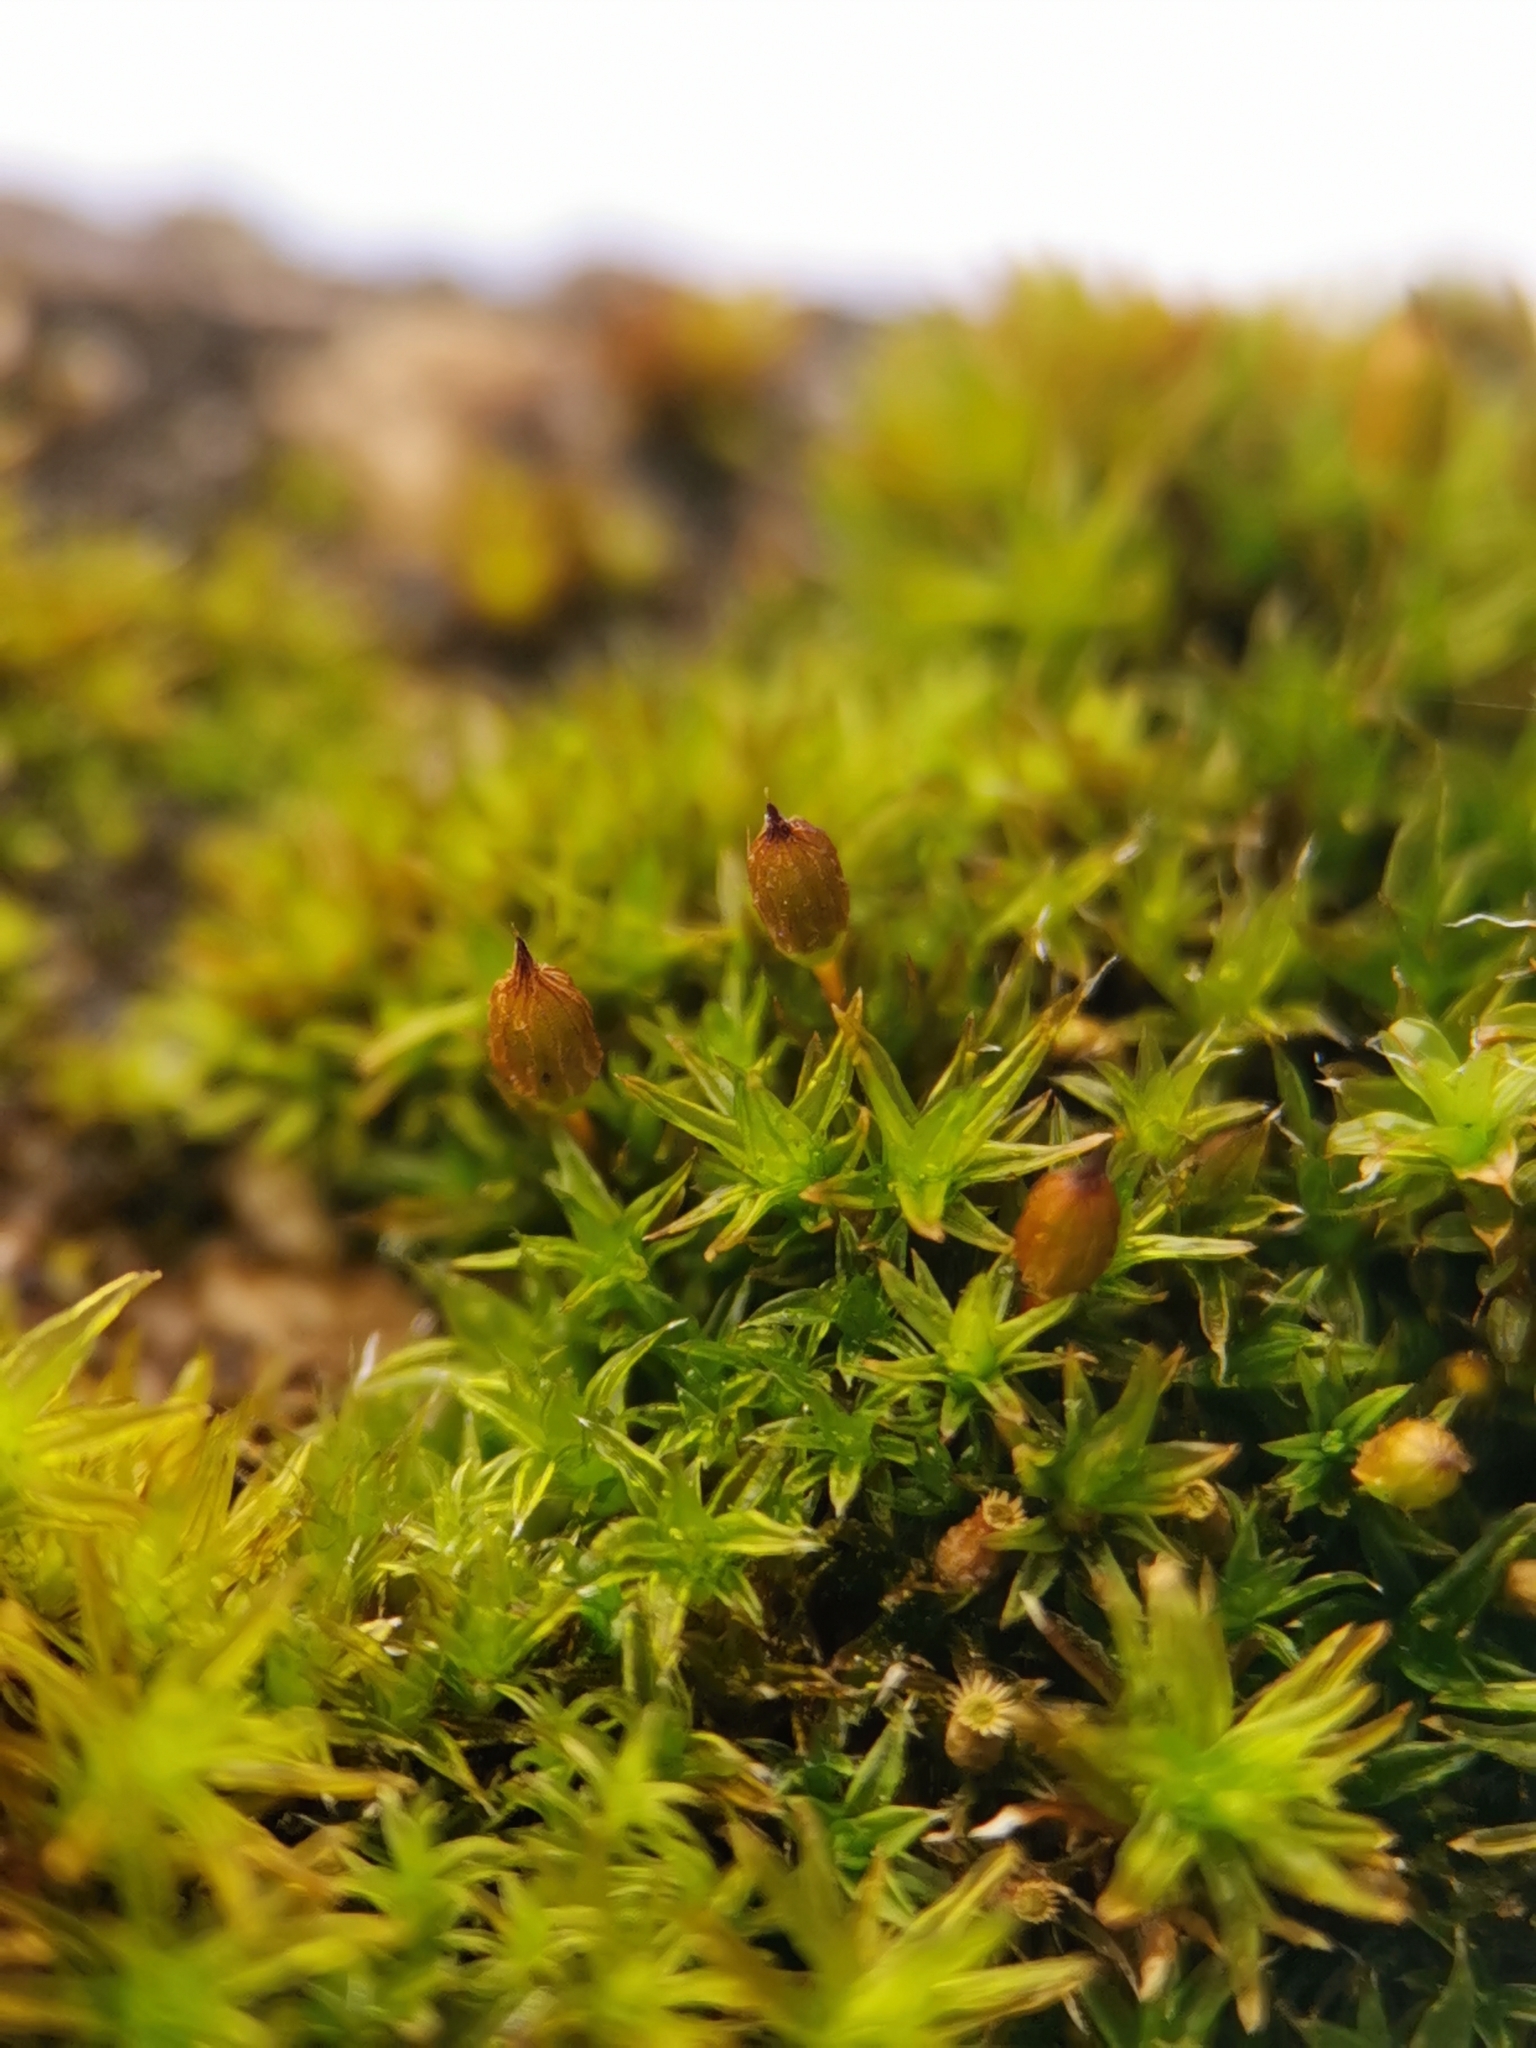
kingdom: Plantae
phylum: Bryophyta
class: Bryopsida
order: Orthotrichales
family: Orthotrichaceae
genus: Orthotrichum
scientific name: Orthotrichum anomalum
